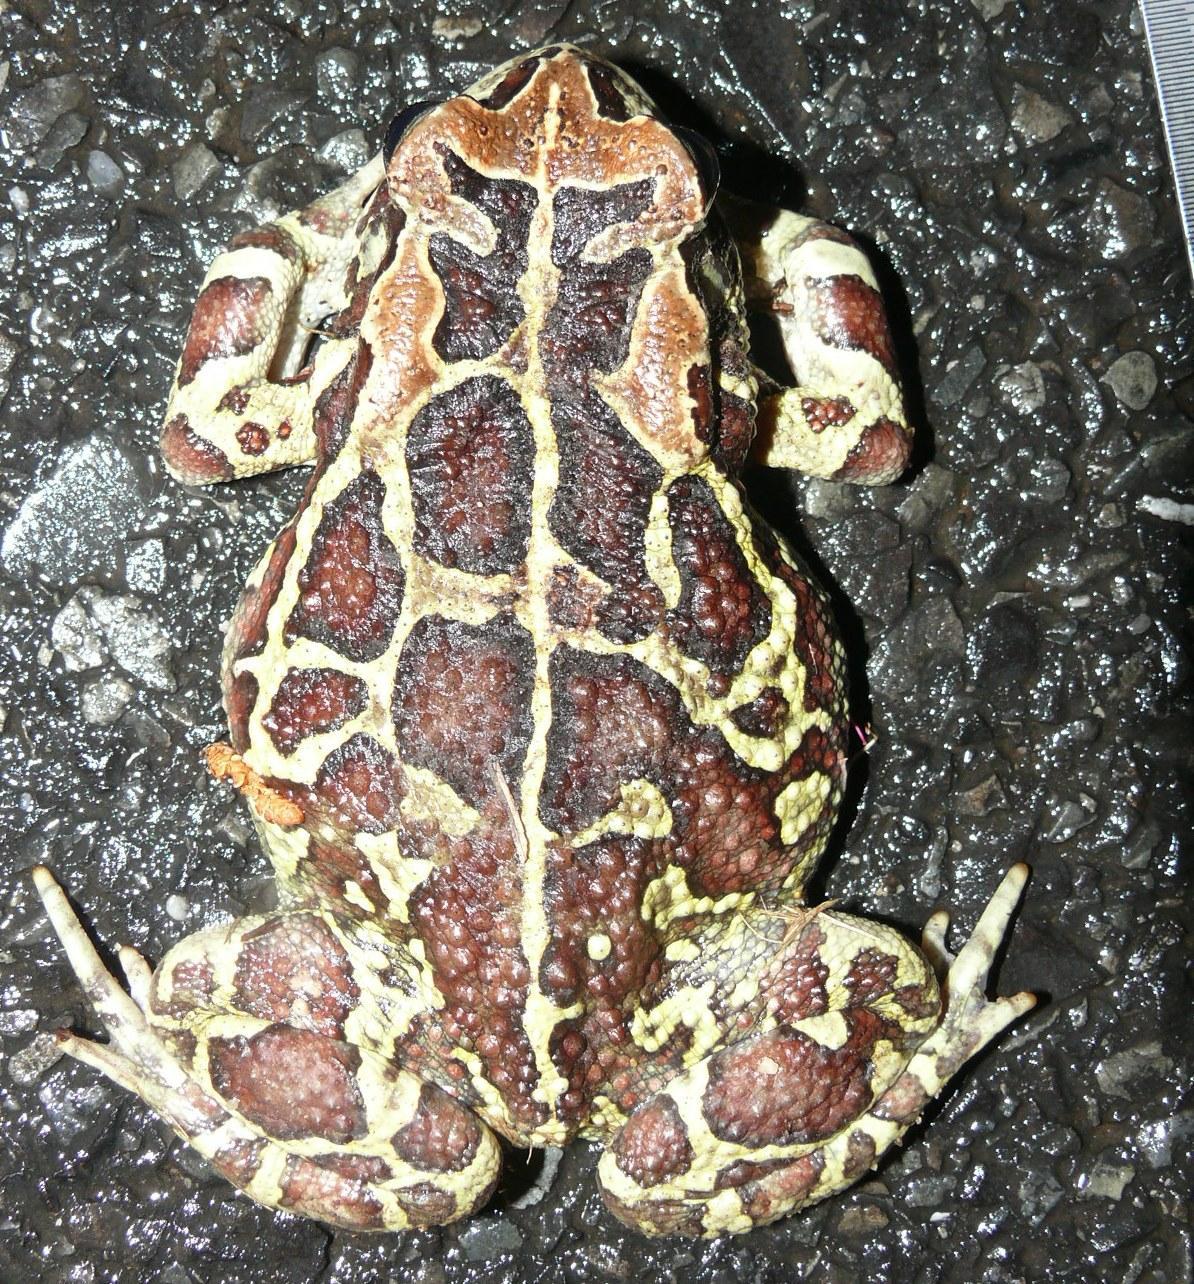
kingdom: Animalia
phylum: Chordata
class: Amphibia
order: Anura
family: Bufonidae
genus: Sclerophrys
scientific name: Sclerophrys pantherina
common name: Panther toad
